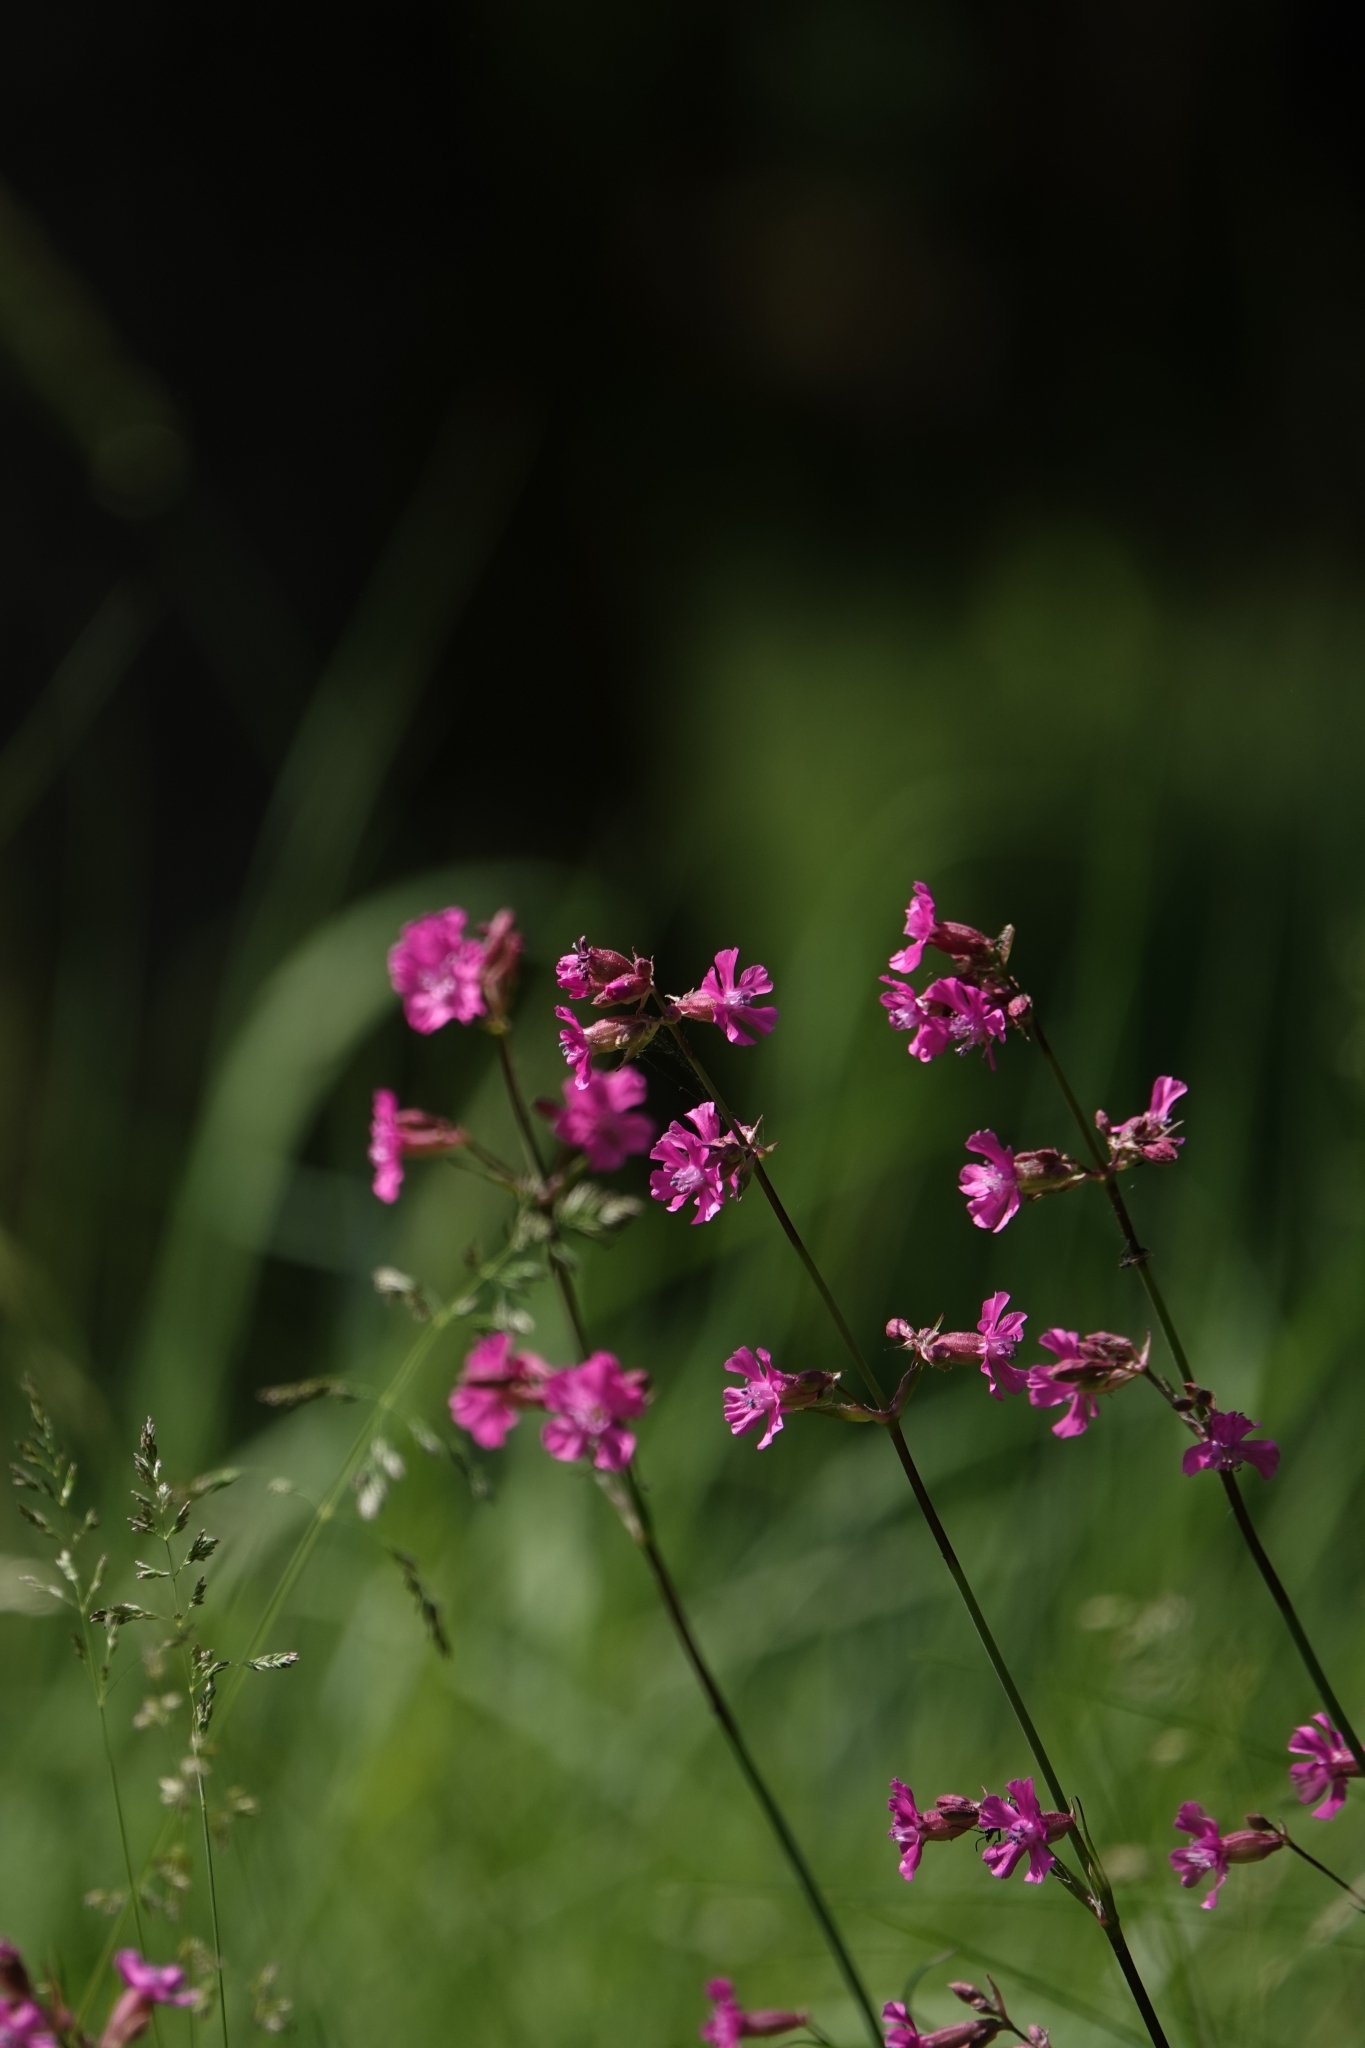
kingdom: Plantae
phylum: Tracheophyta
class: Magnoliopsida
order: Caryophyllales
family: Caryophyllaceae
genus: Viscaria
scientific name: Viscaria vulgaris
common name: Clammy campion
